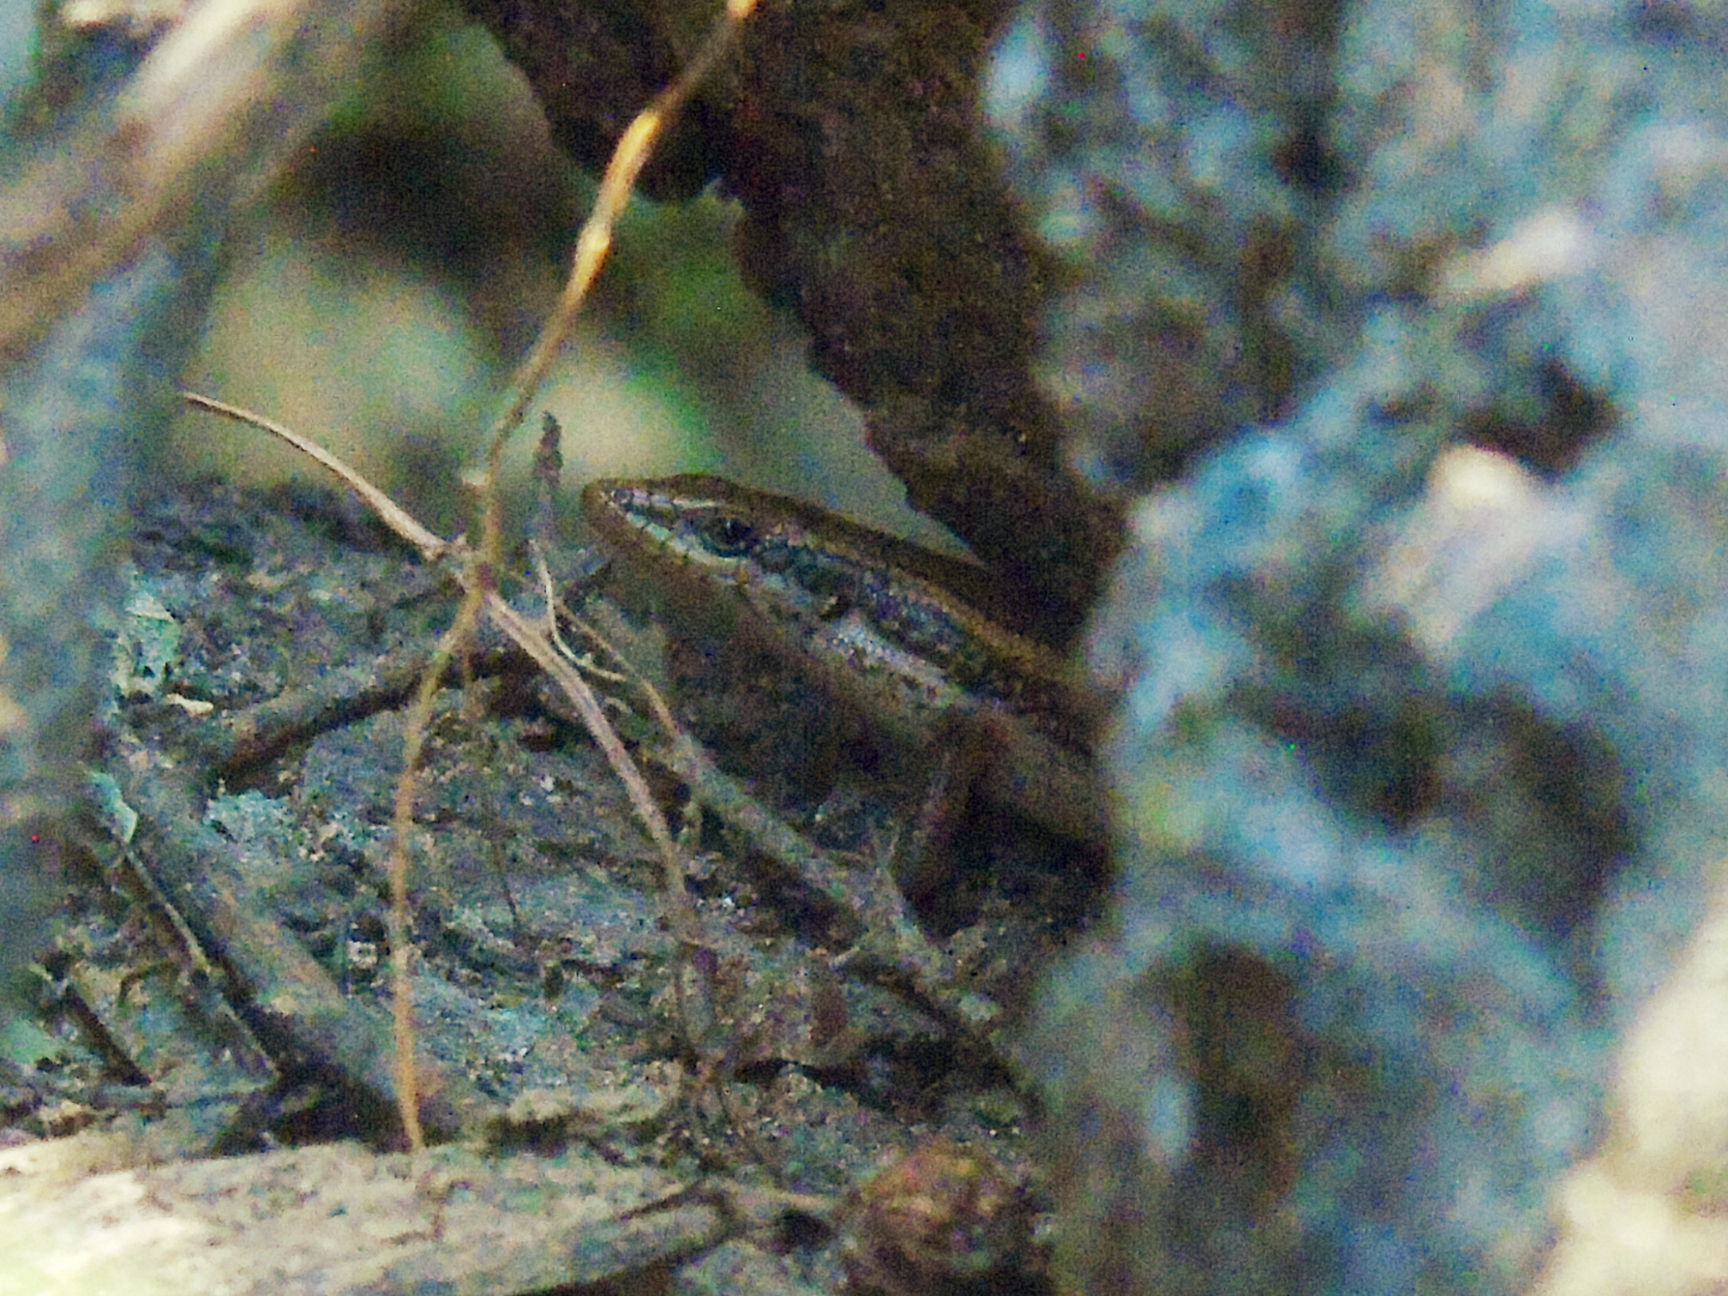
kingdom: Animalia
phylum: Chordata
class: Squamata
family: Scincidae
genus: Trachylepis
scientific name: Trachylepis tessellata
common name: Tessellated mabuya
